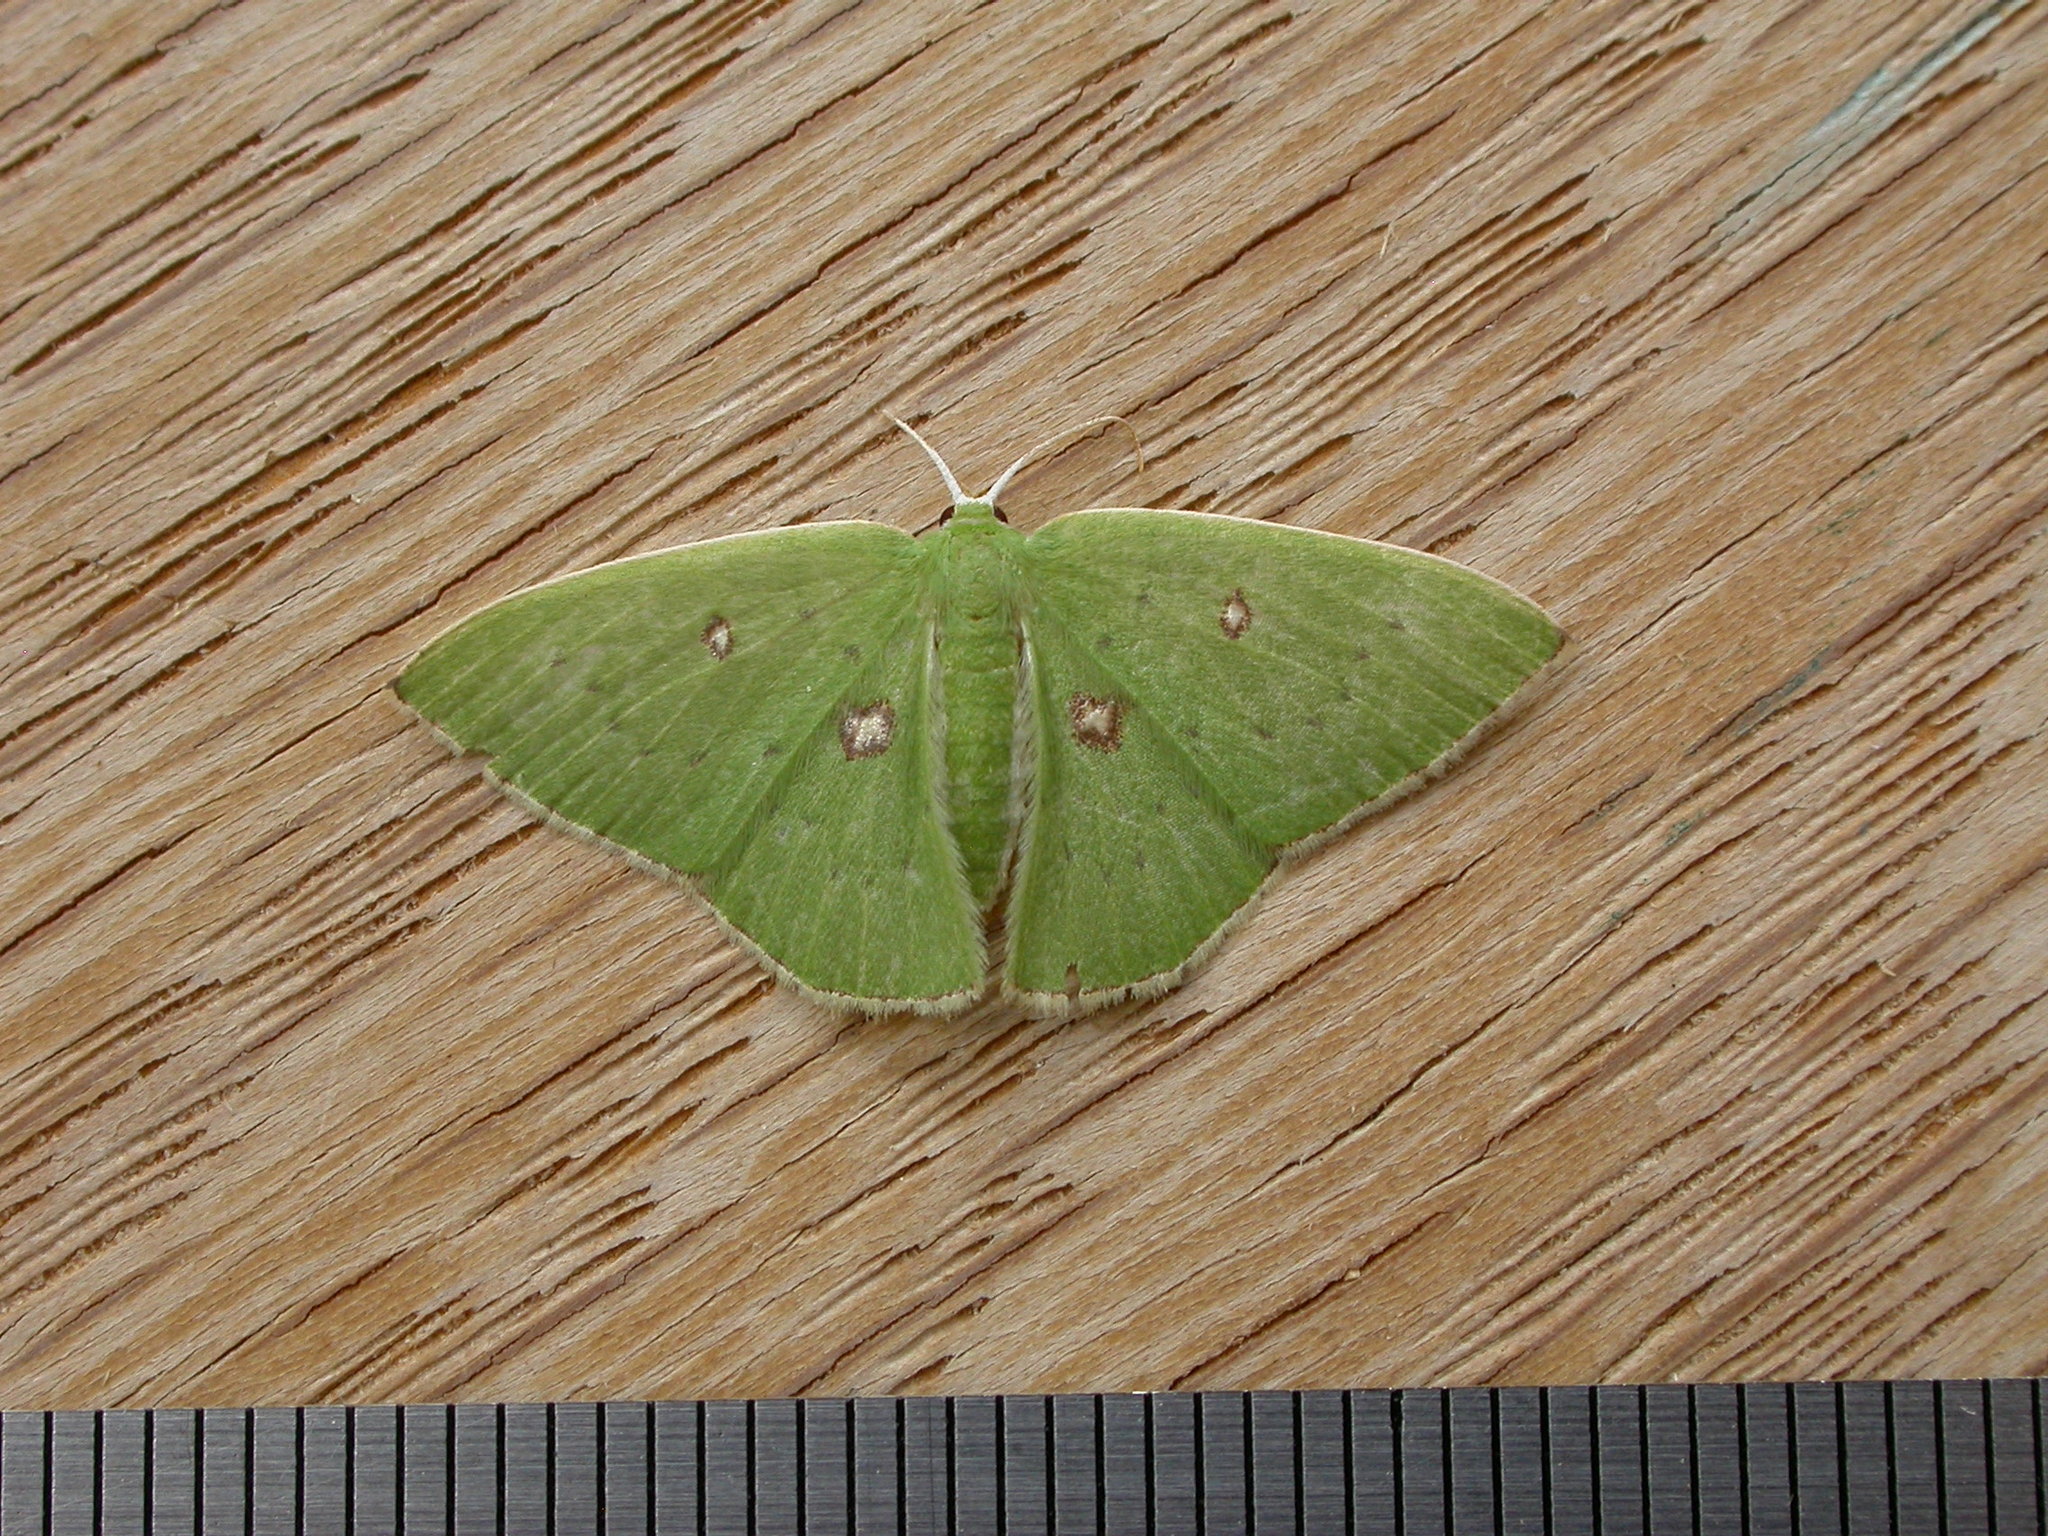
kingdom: Animalia
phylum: Arthropoda
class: Insecta
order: Lepidoptera
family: Geometridae
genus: Comostola
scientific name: Comostola leucomerata
